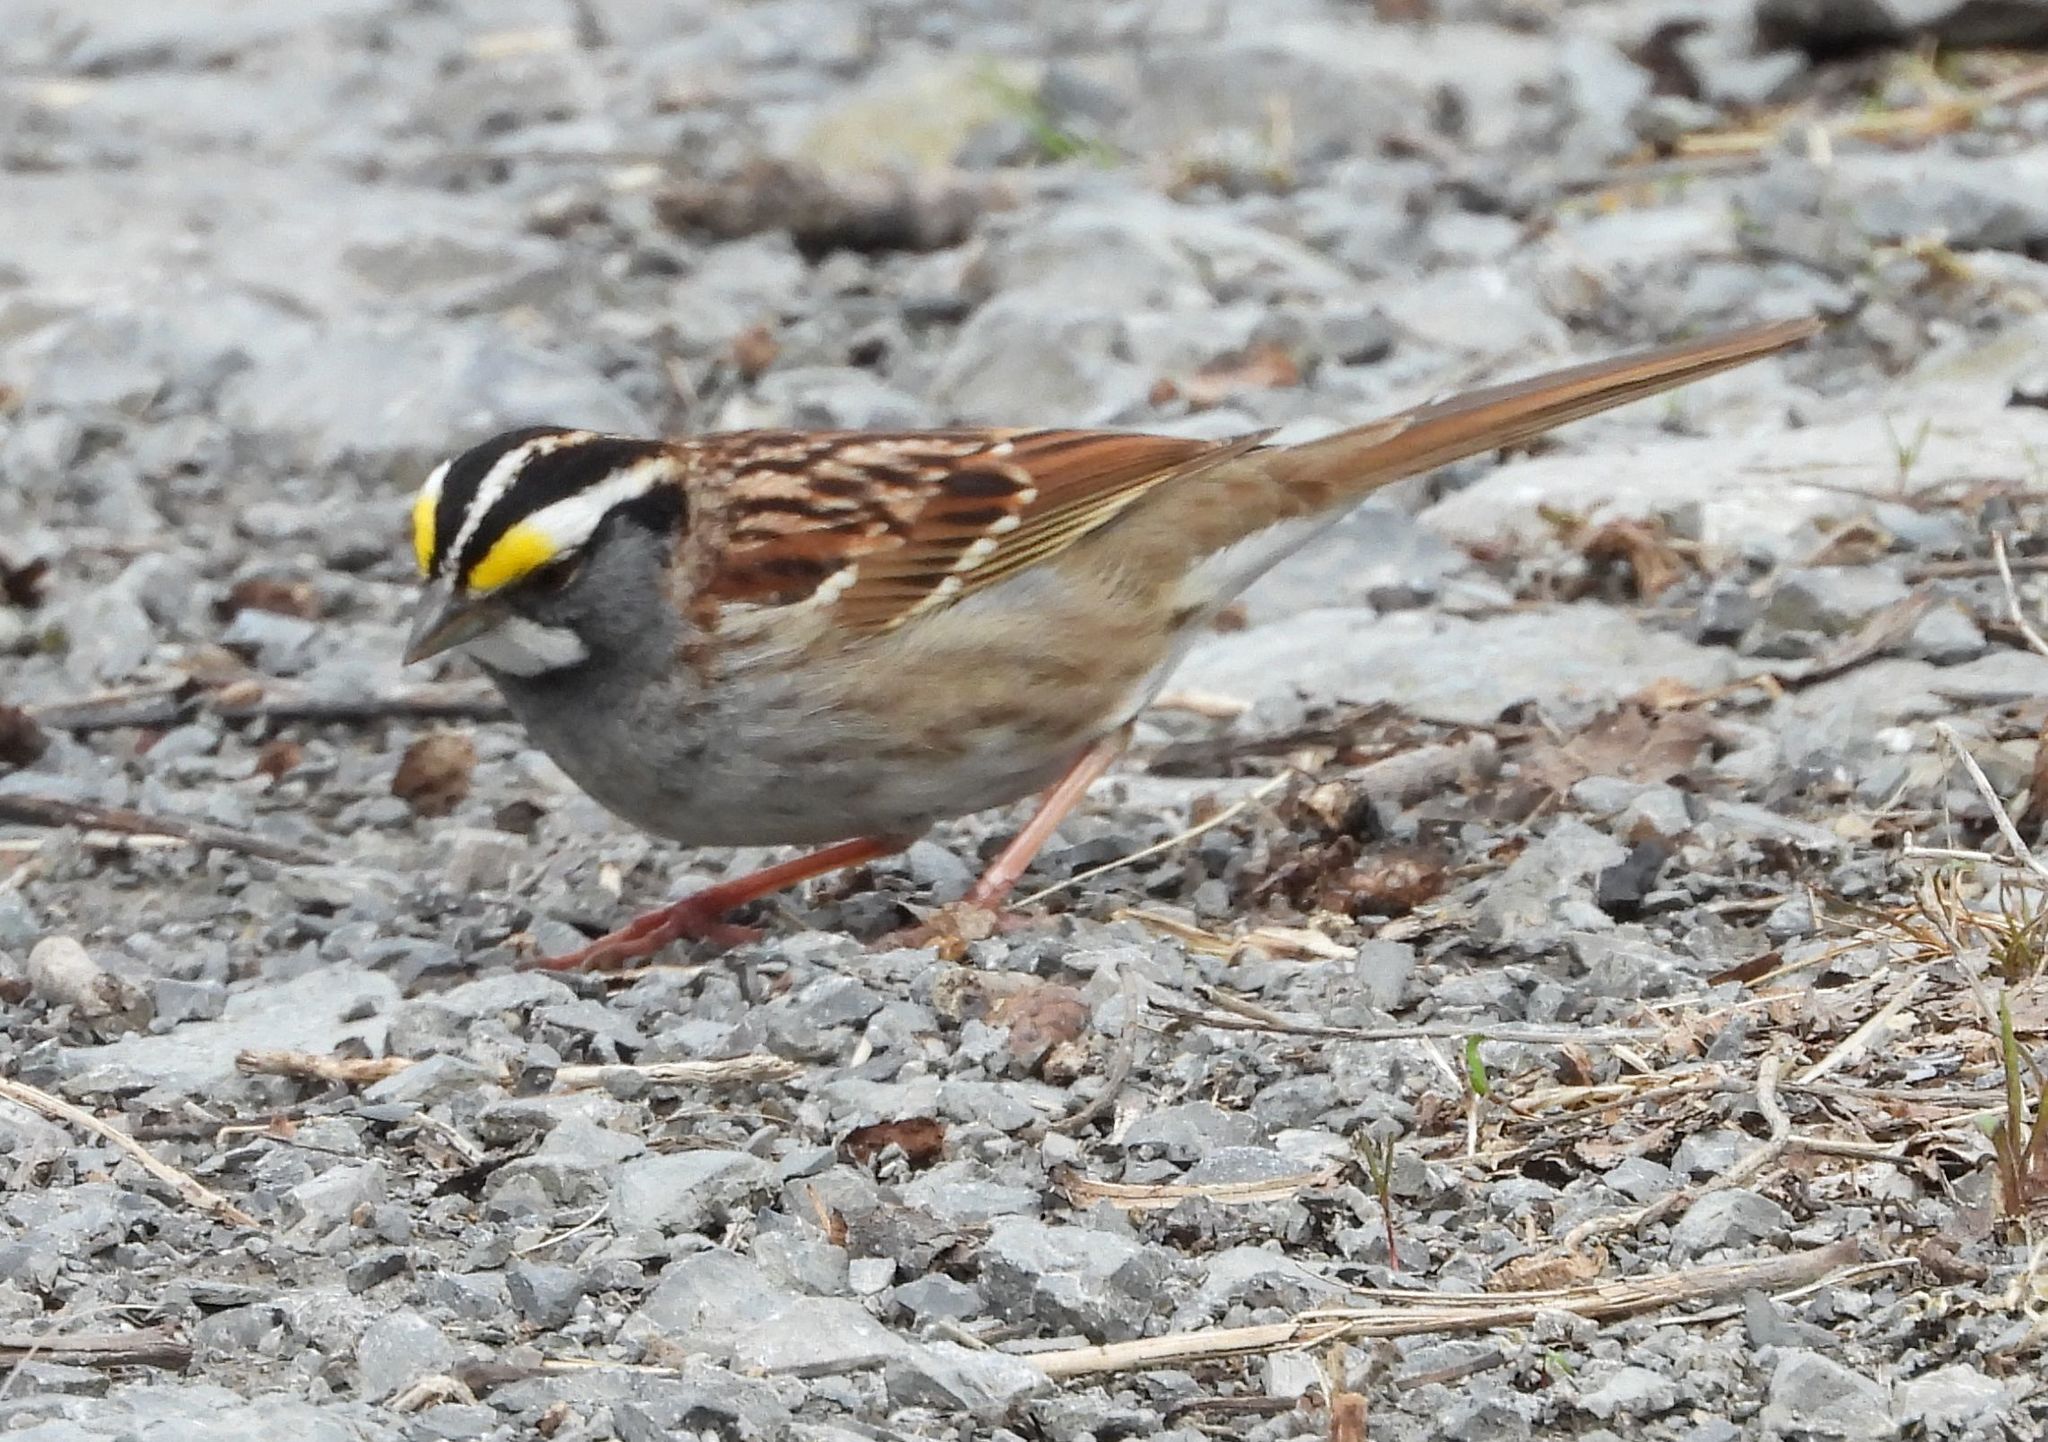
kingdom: Animalia
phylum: Chordata
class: Aves
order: Passeriformes
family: Passerellidae
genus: Zonotrichia
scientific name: Zonotrichia albicollis
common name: White-throated sparrow
